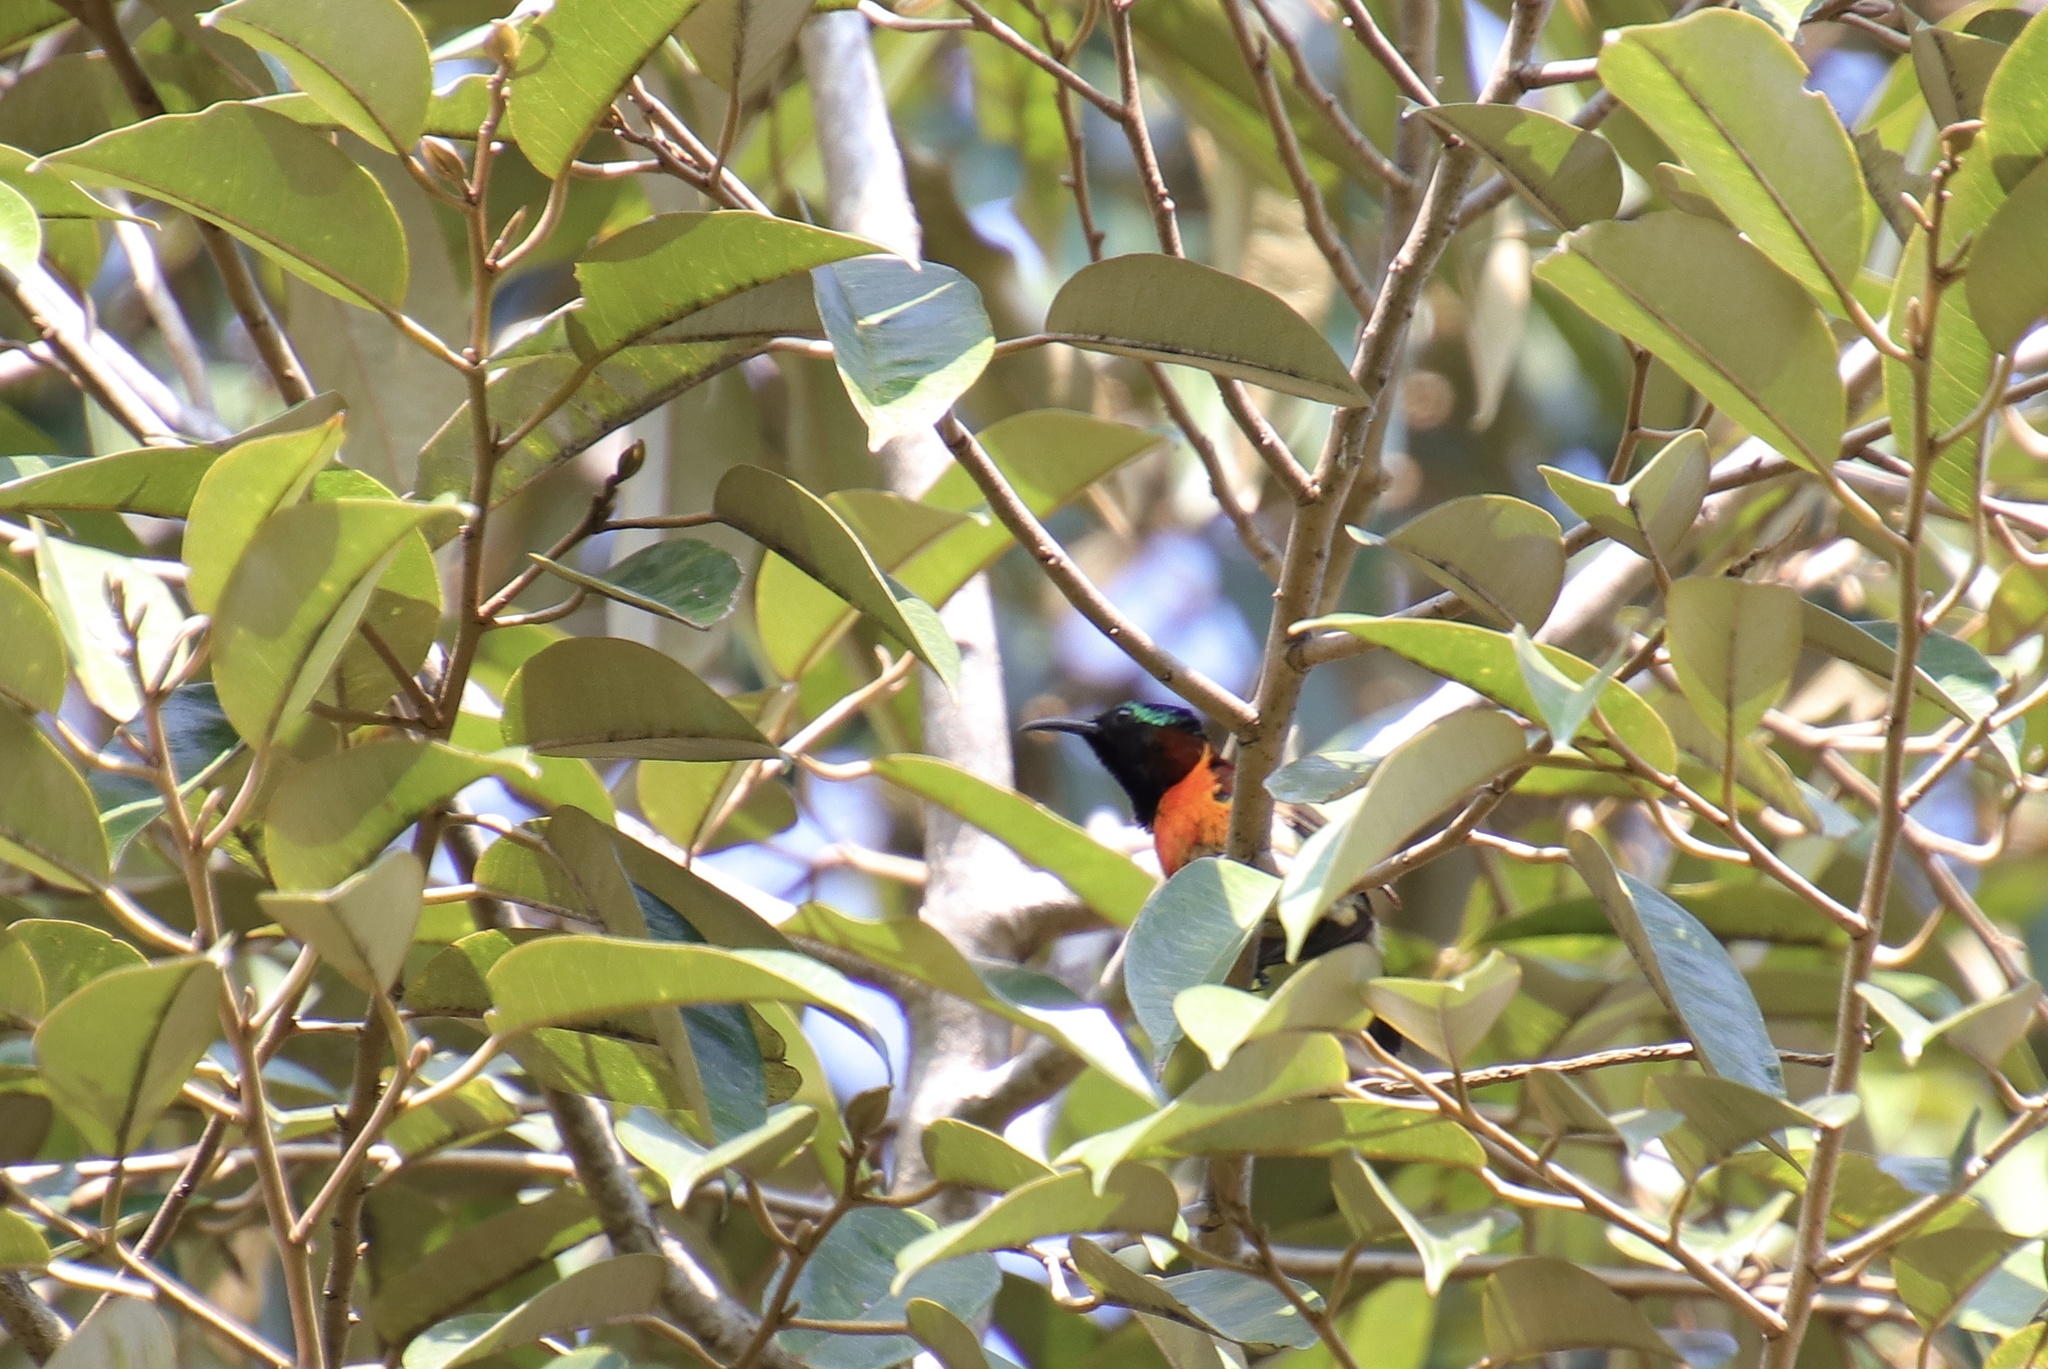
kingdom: Animalia
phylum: Chordata
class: Aves
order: Passeriformes
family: Nectariniidae
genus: Leptocoma
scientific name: Leptocoma sperata
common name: Purple-throated sunbird
